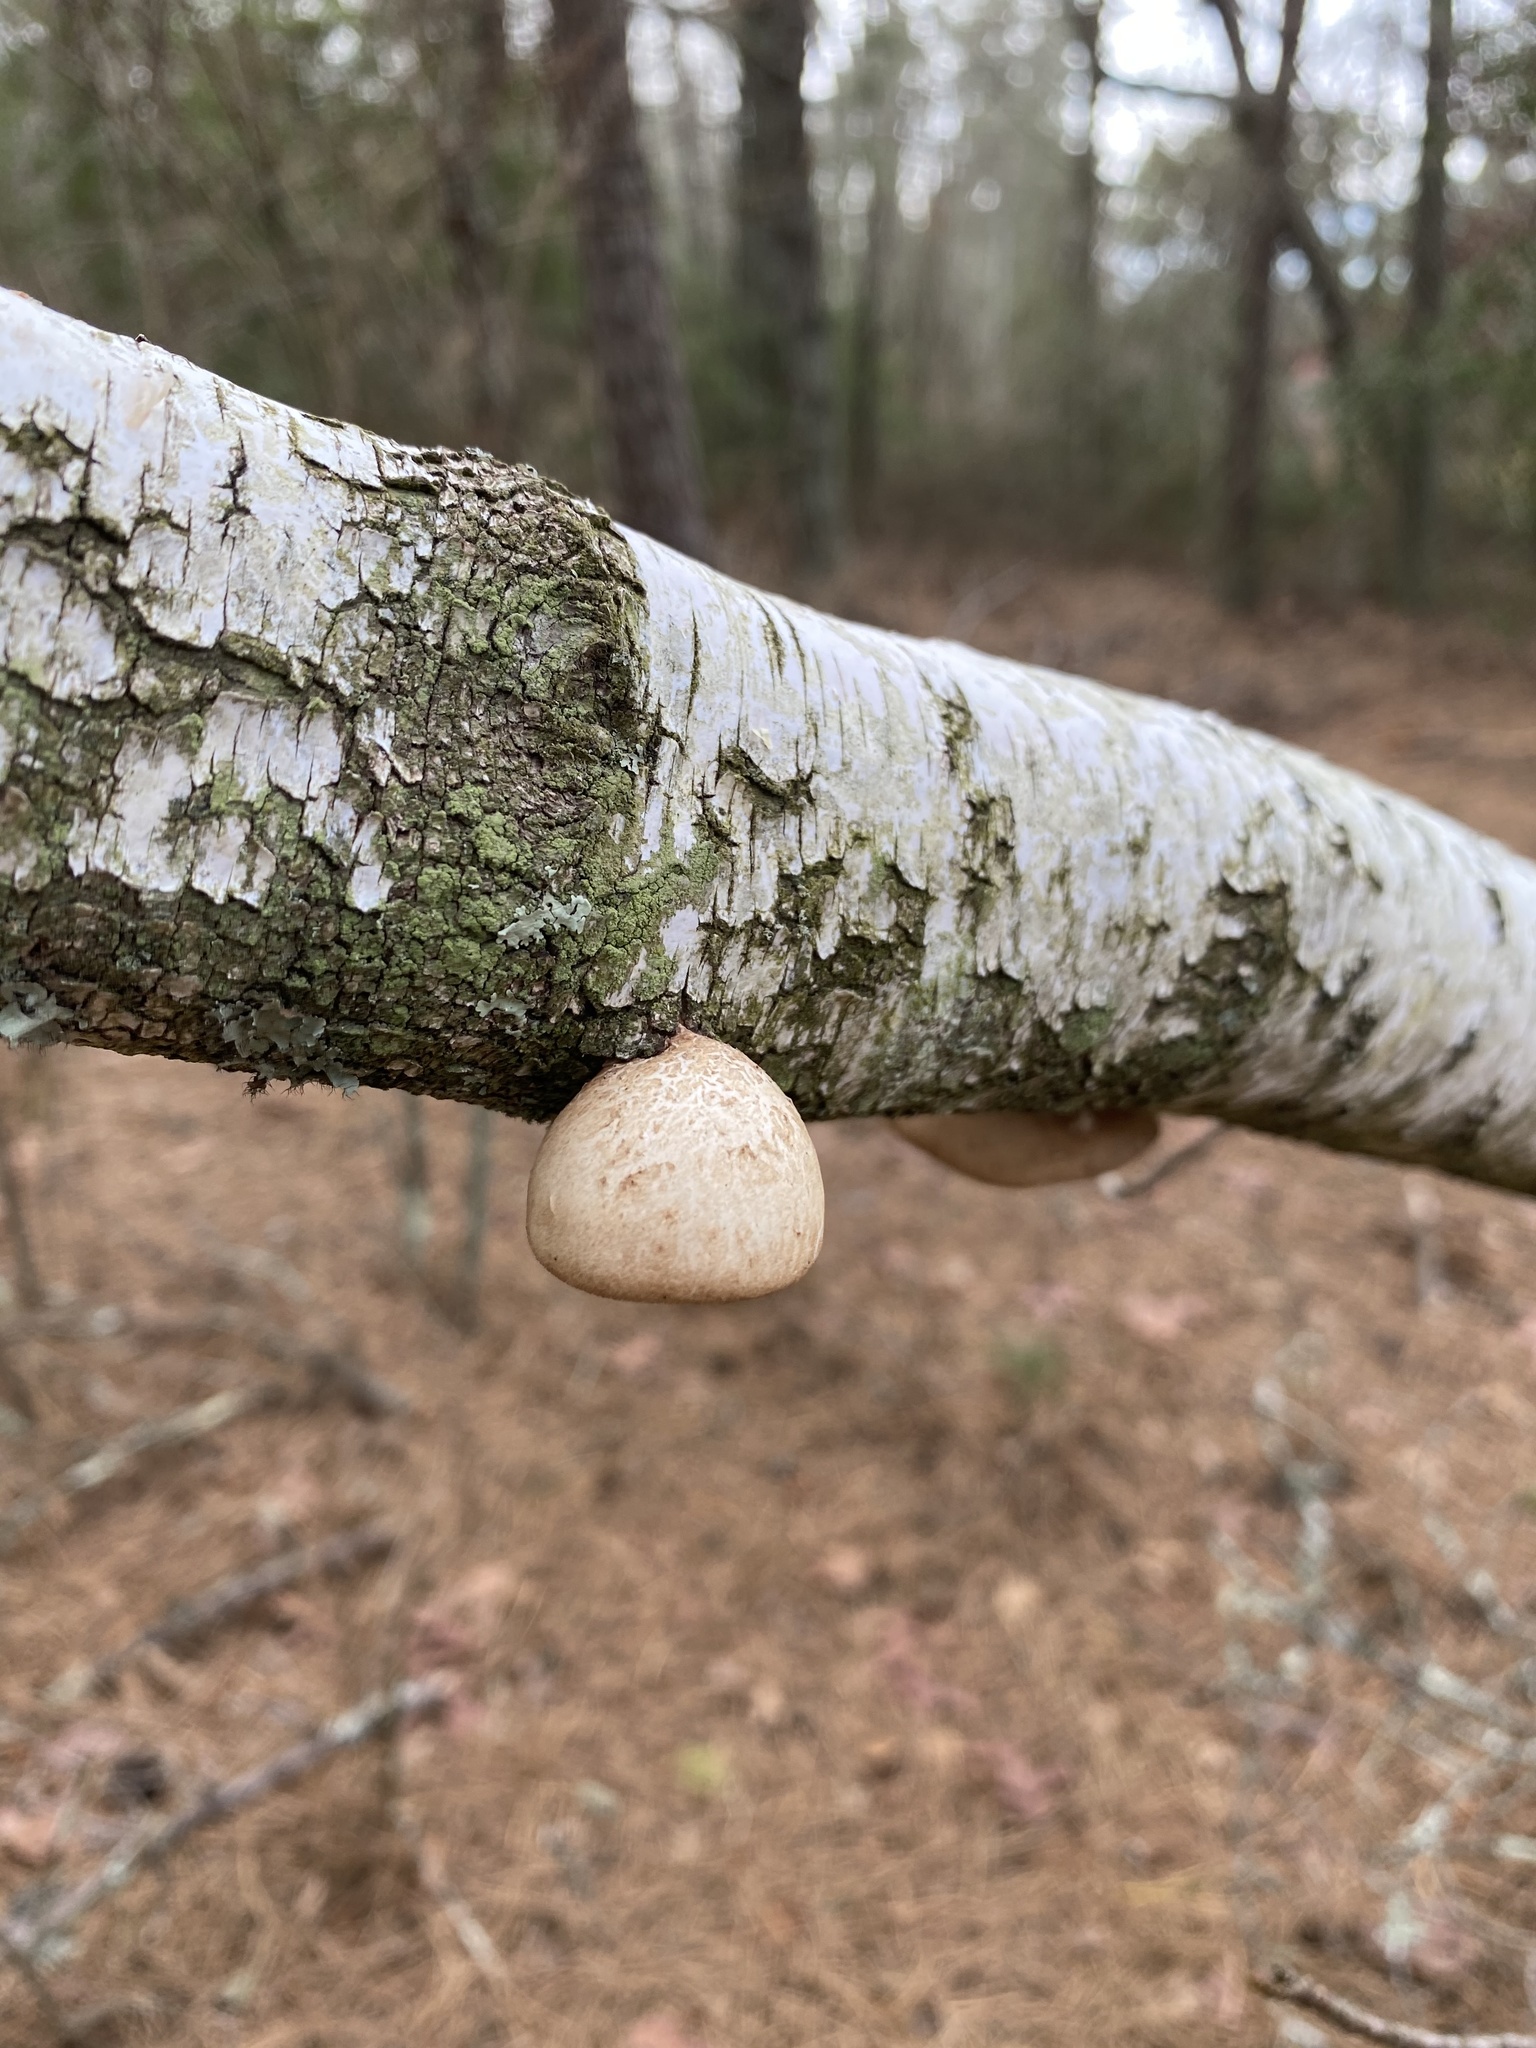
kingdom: Fungi
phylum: Basidiomycota
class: Agaricomycetes
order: Polyporales
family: Fomitopsidaceae
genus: Fomitopsis
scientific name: Fomitopsis betulina
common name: Birch polypore
